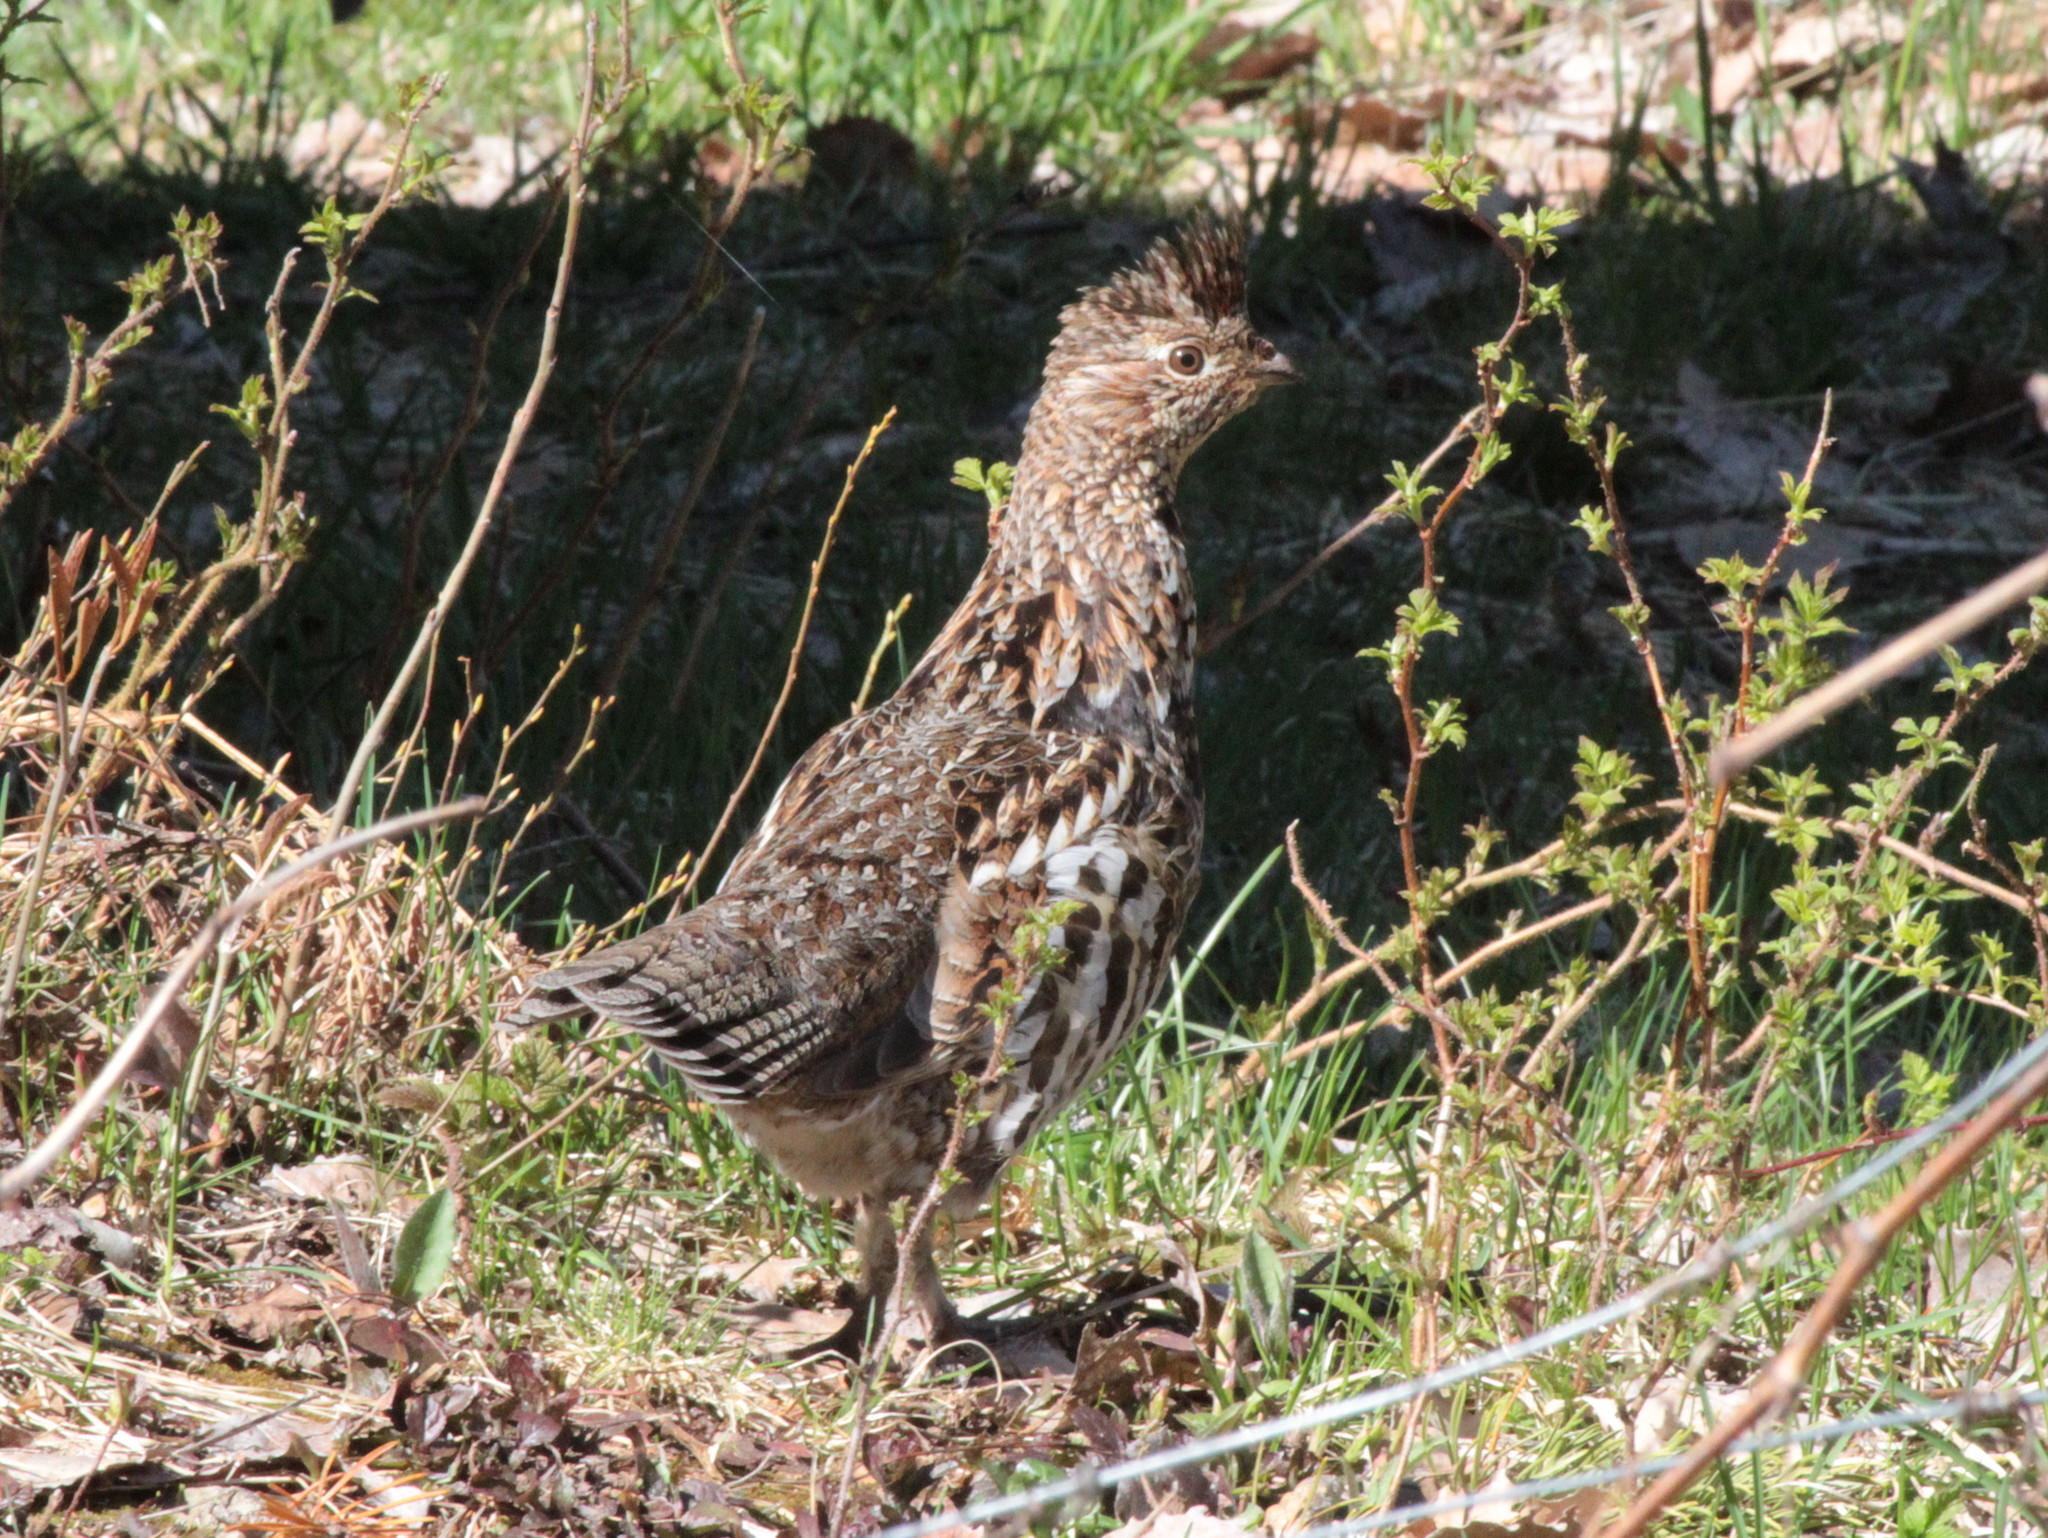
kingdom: Animalia
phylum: Chordata
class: Aves
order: Galliformes
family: Phasianidae
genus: Bonasa
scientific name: Bonasa umbellus
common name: Ruffed grouse
